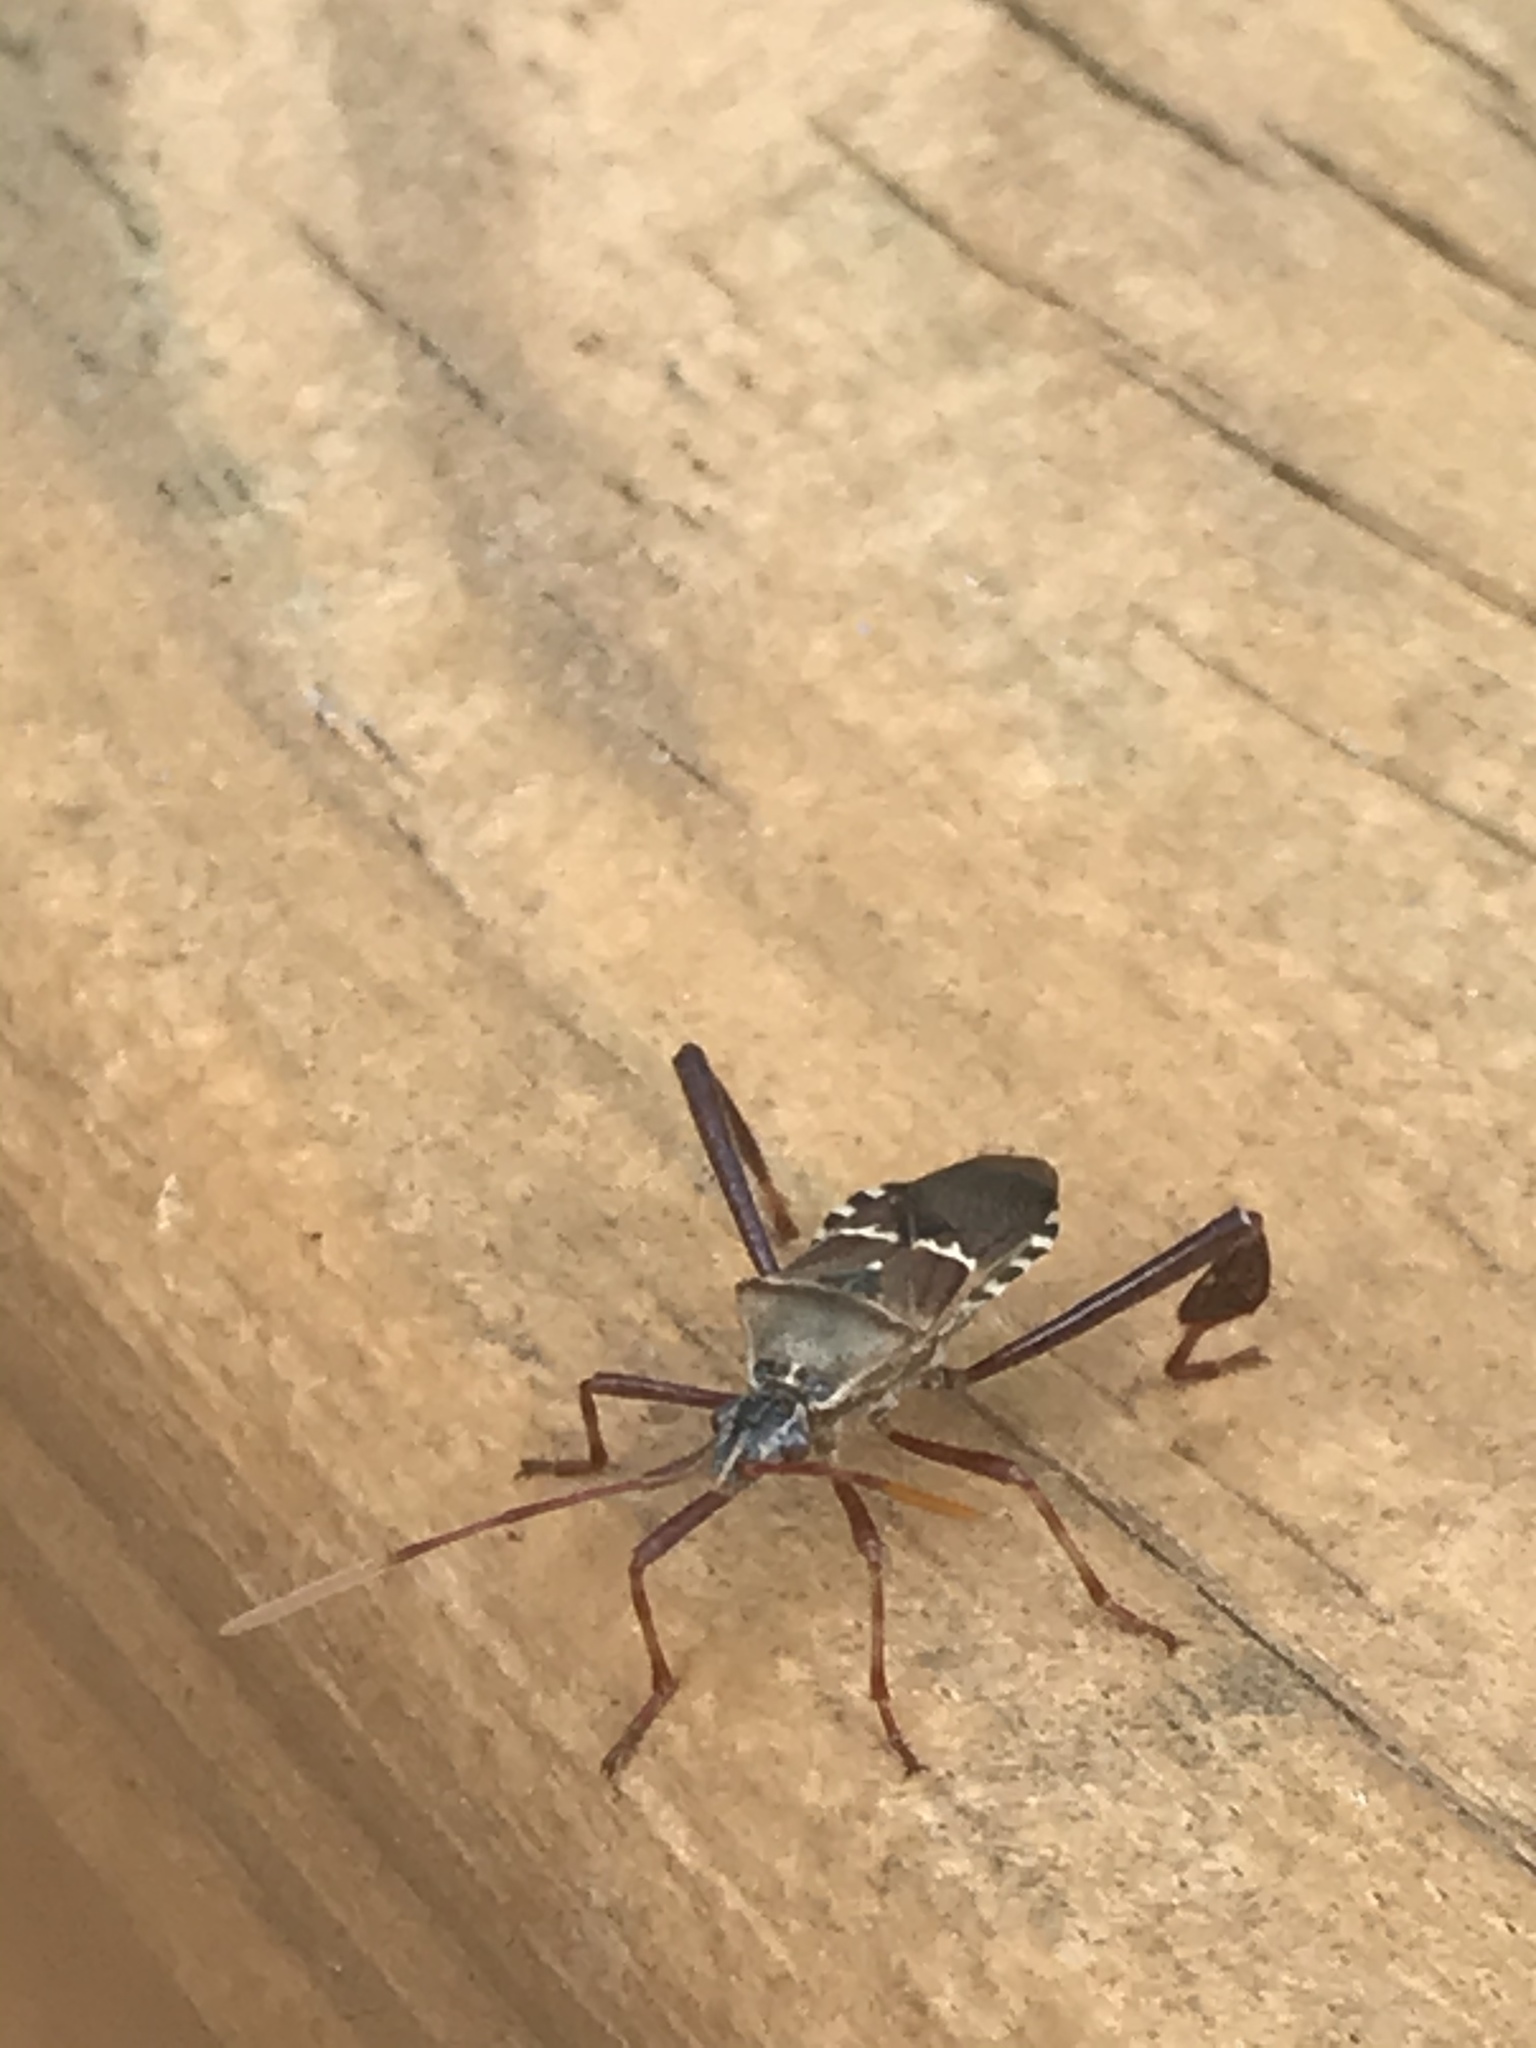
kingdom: Animalia
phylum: Arthropoda
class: Insecta
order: Hemiptera
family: Coreidae
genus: Leptoglossus
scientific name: Leptoglossus clypealis
